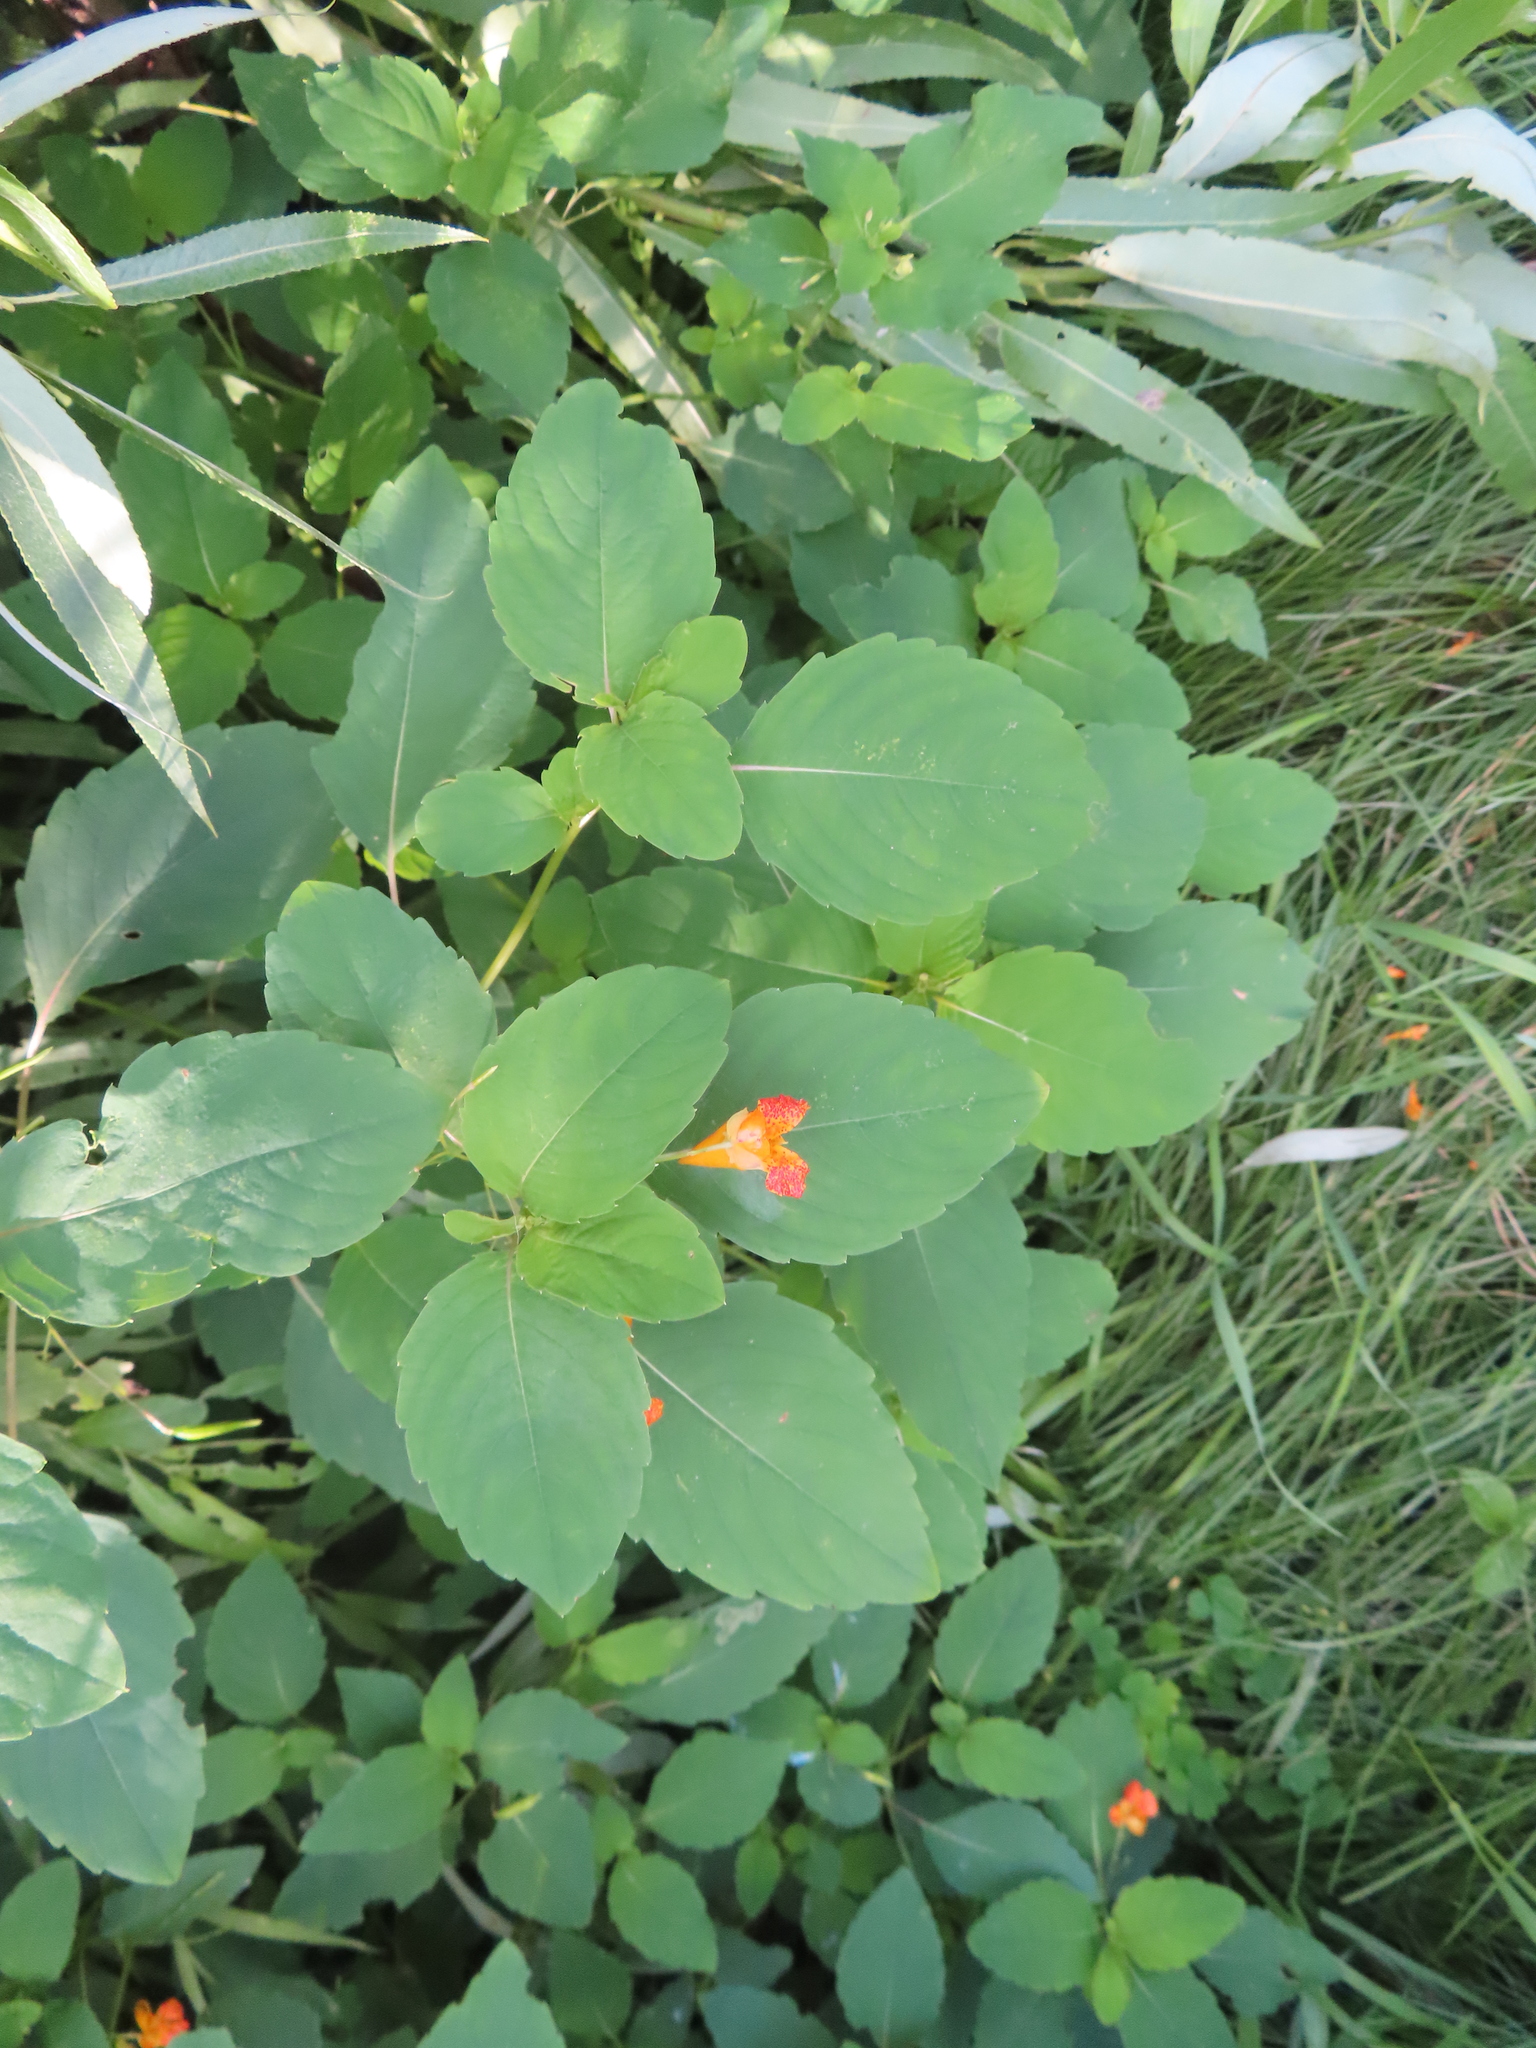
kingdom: Plantae
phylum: Tracheophyta
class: Magnoliopsida
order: Ericales
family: Balsaminaceae
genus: Impatiens
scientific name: Impatiens capensis
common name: Orange balsam
